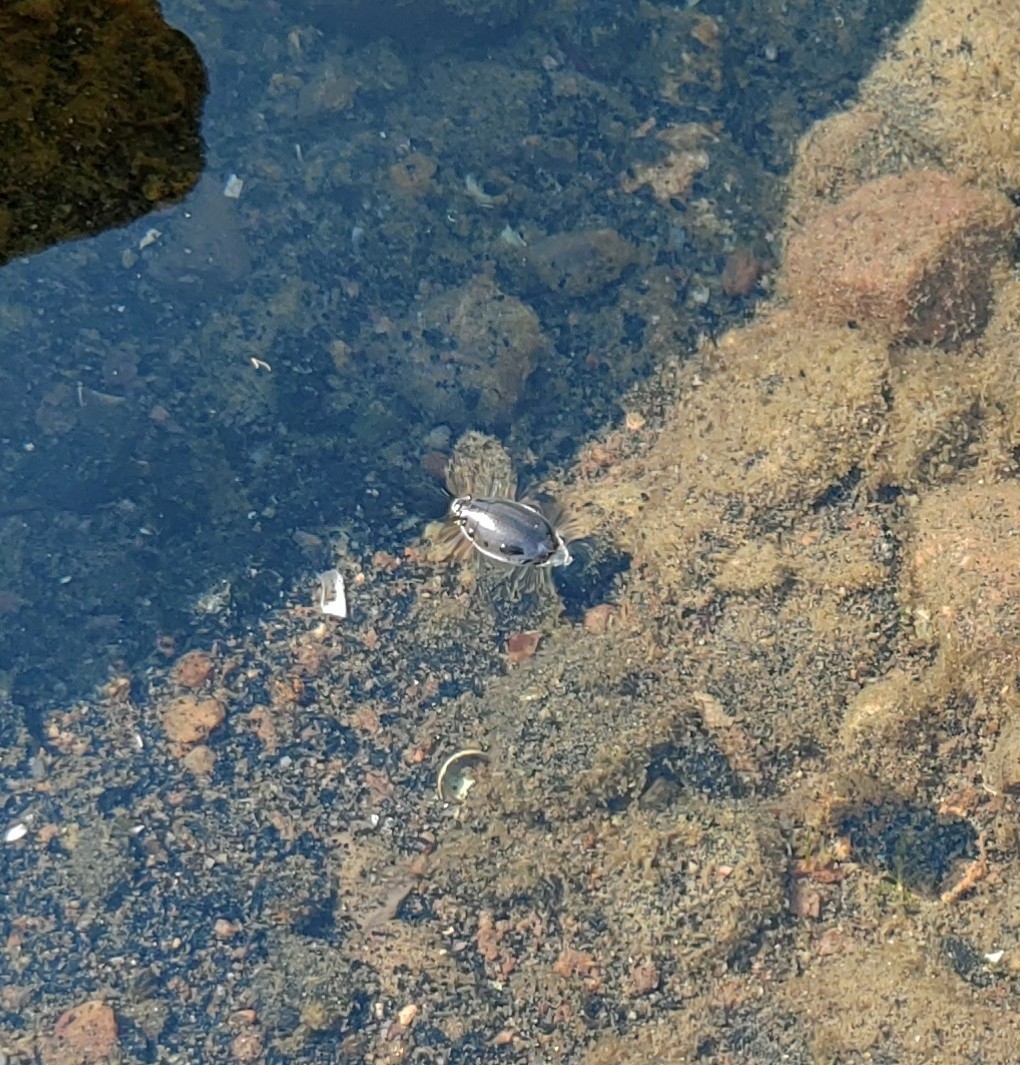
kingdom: Animalia
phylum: Arthropoda
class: Insecta
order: Coleoptera
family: Gyrinidae
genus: Dineutus
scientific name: Dineutus
